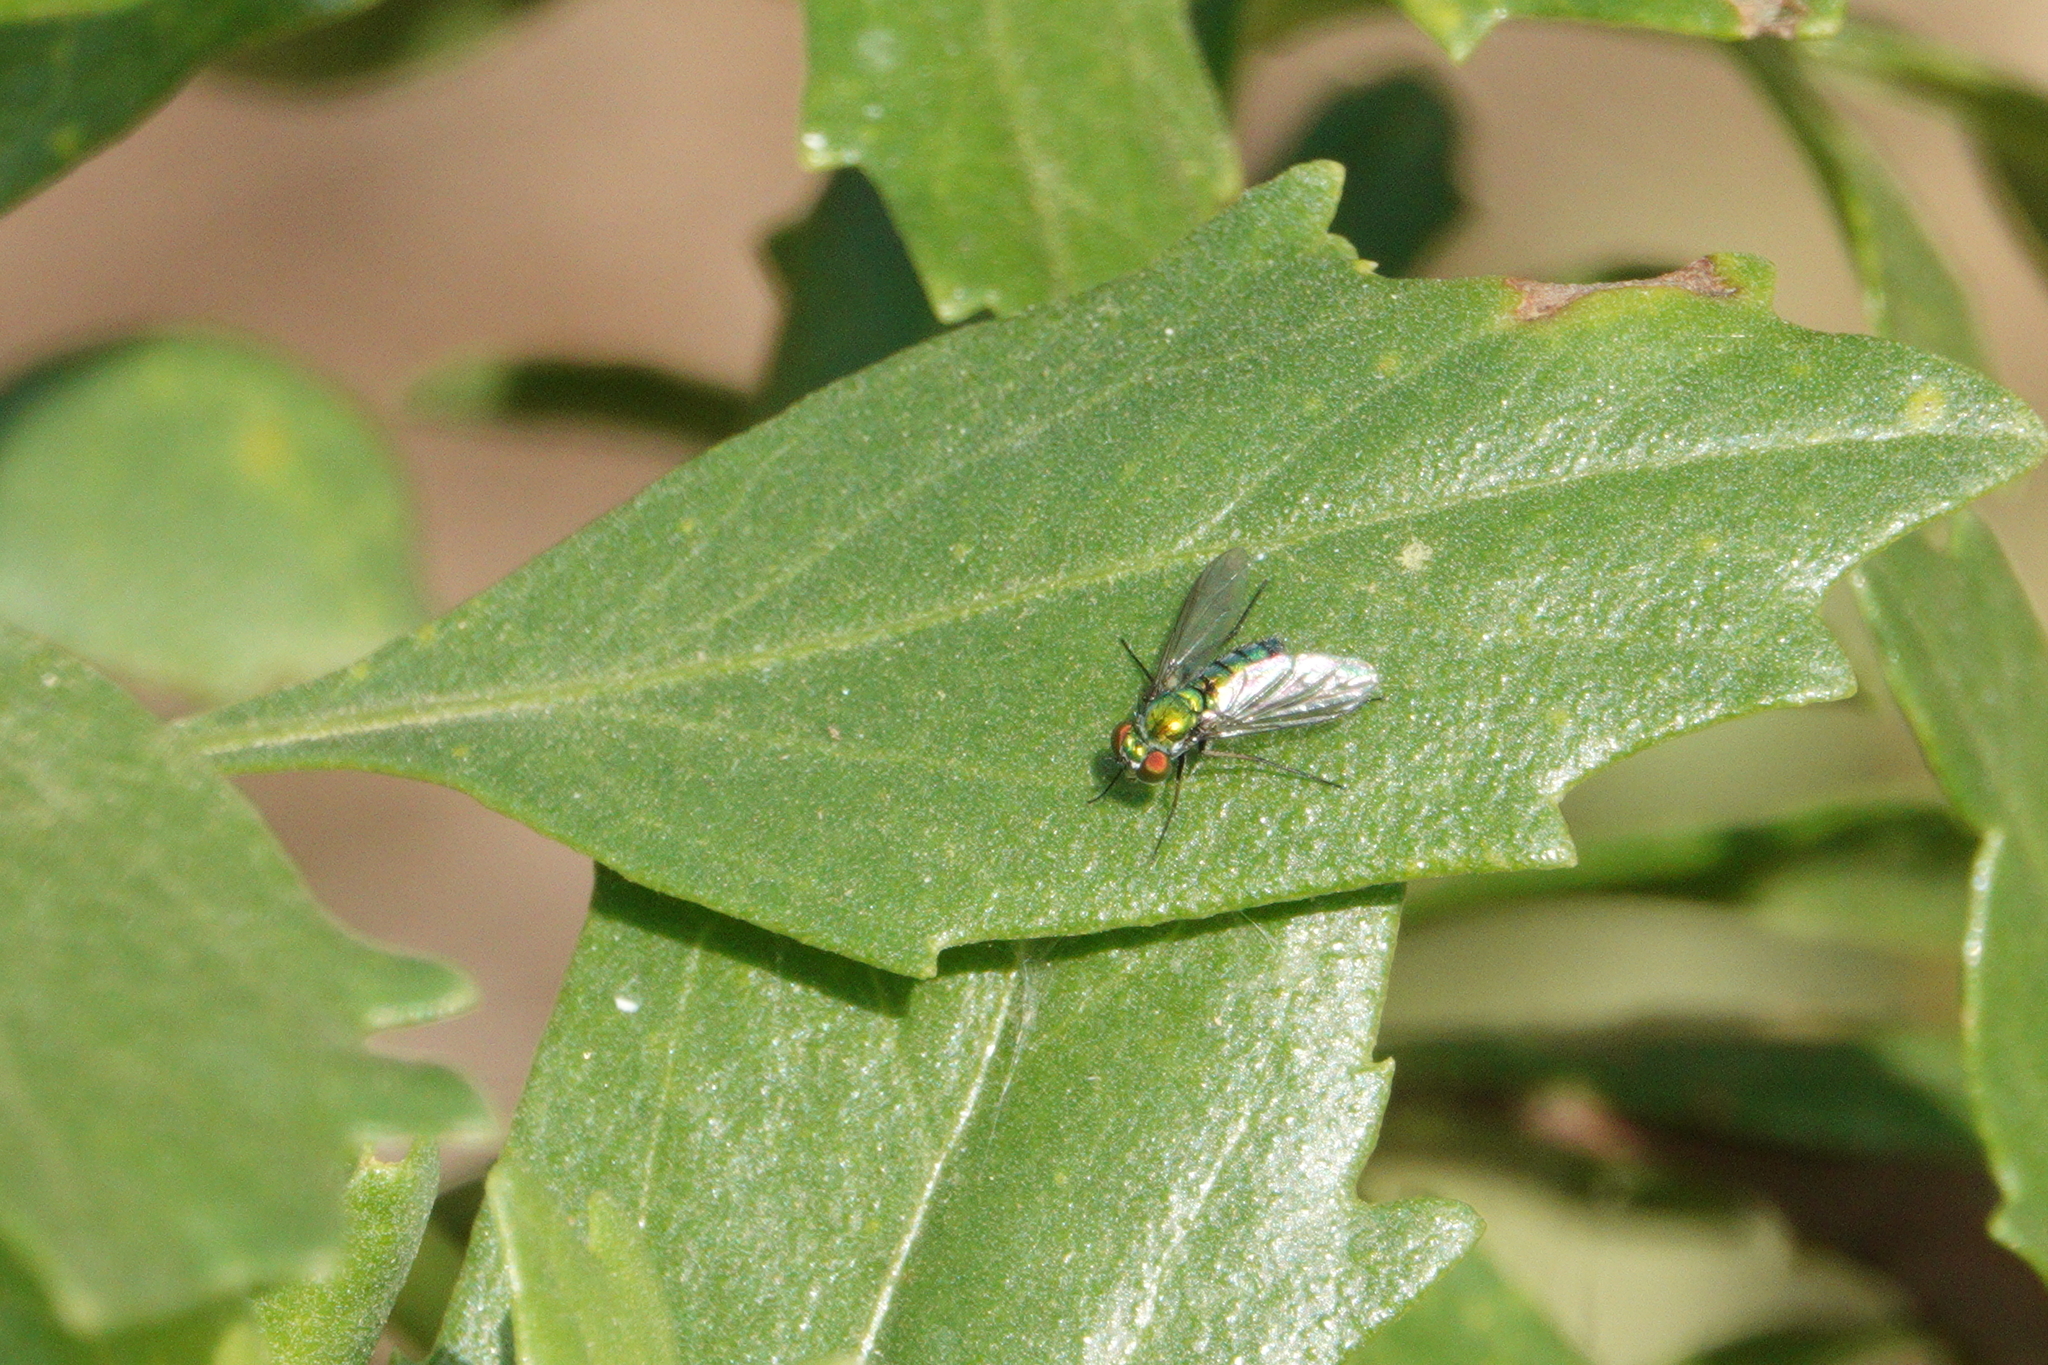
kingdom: Animalia
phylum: Arthropoda
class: Insecta
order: Diptera
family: Dolichopodidae
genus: Condylostylus
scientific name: Condylostylus longicornis
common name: Long-legged fly
